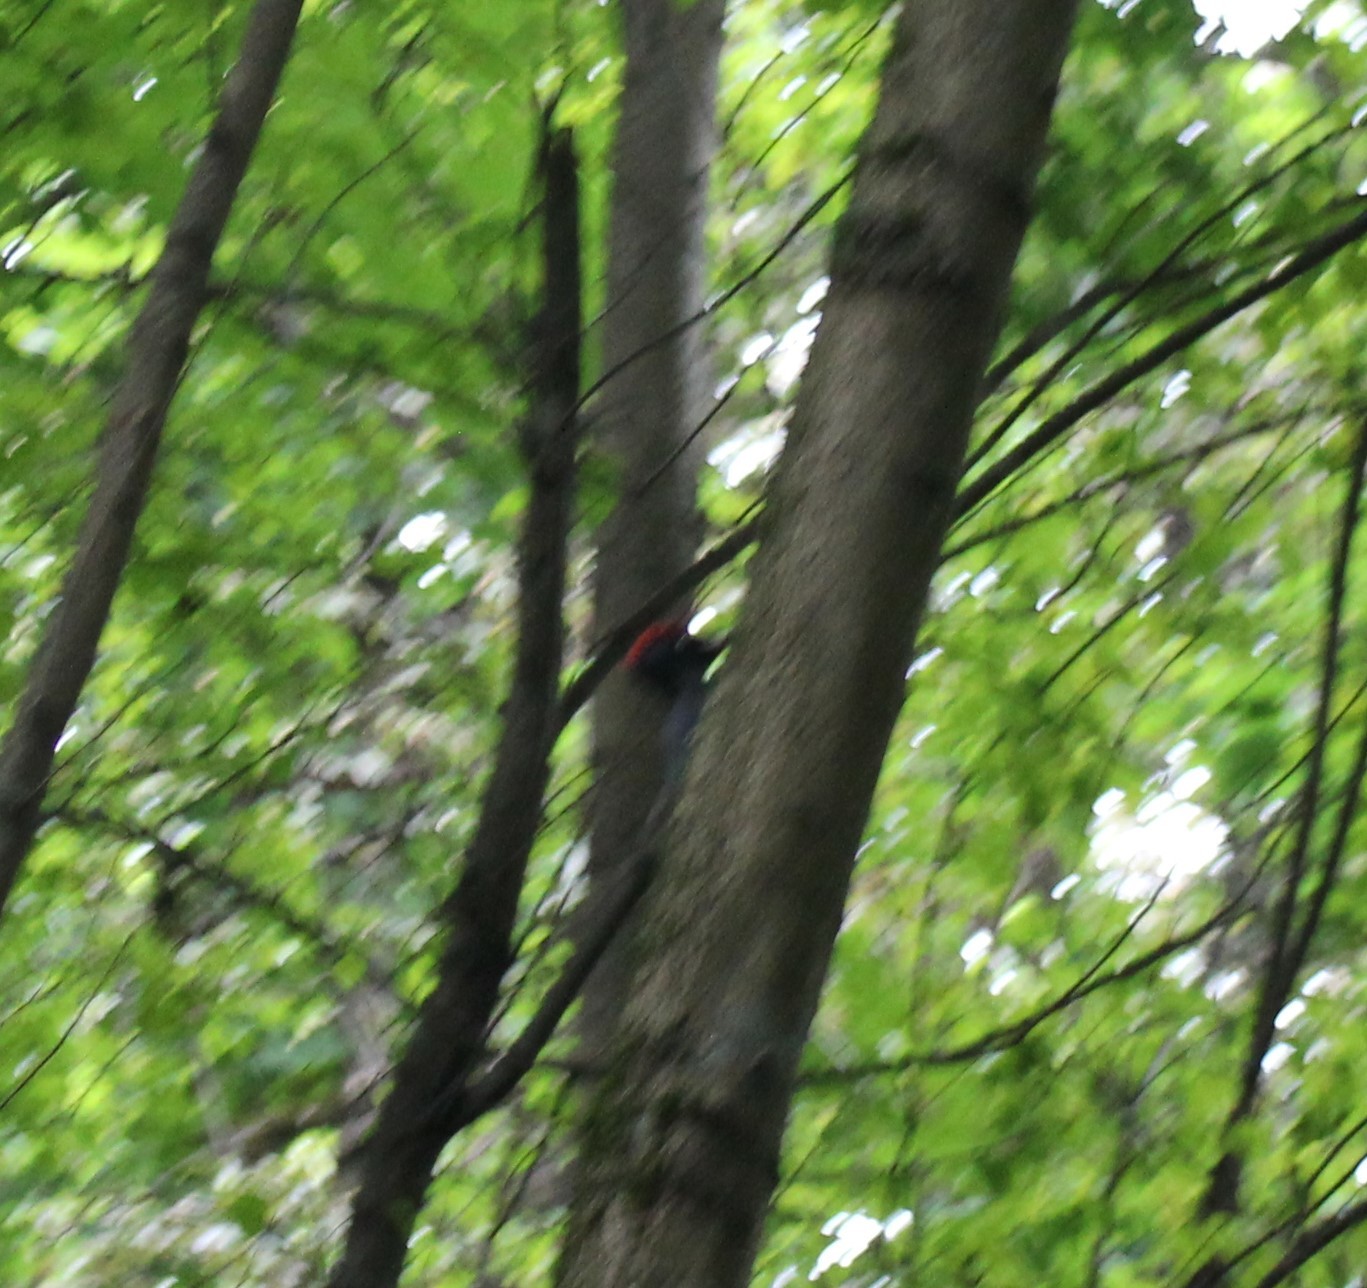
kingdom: Animalia
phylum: Chordata
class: Aves
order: Piciformes
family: Picidae
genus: Dryocopus
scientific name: Dryocopus martius
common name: Black woodpecker
